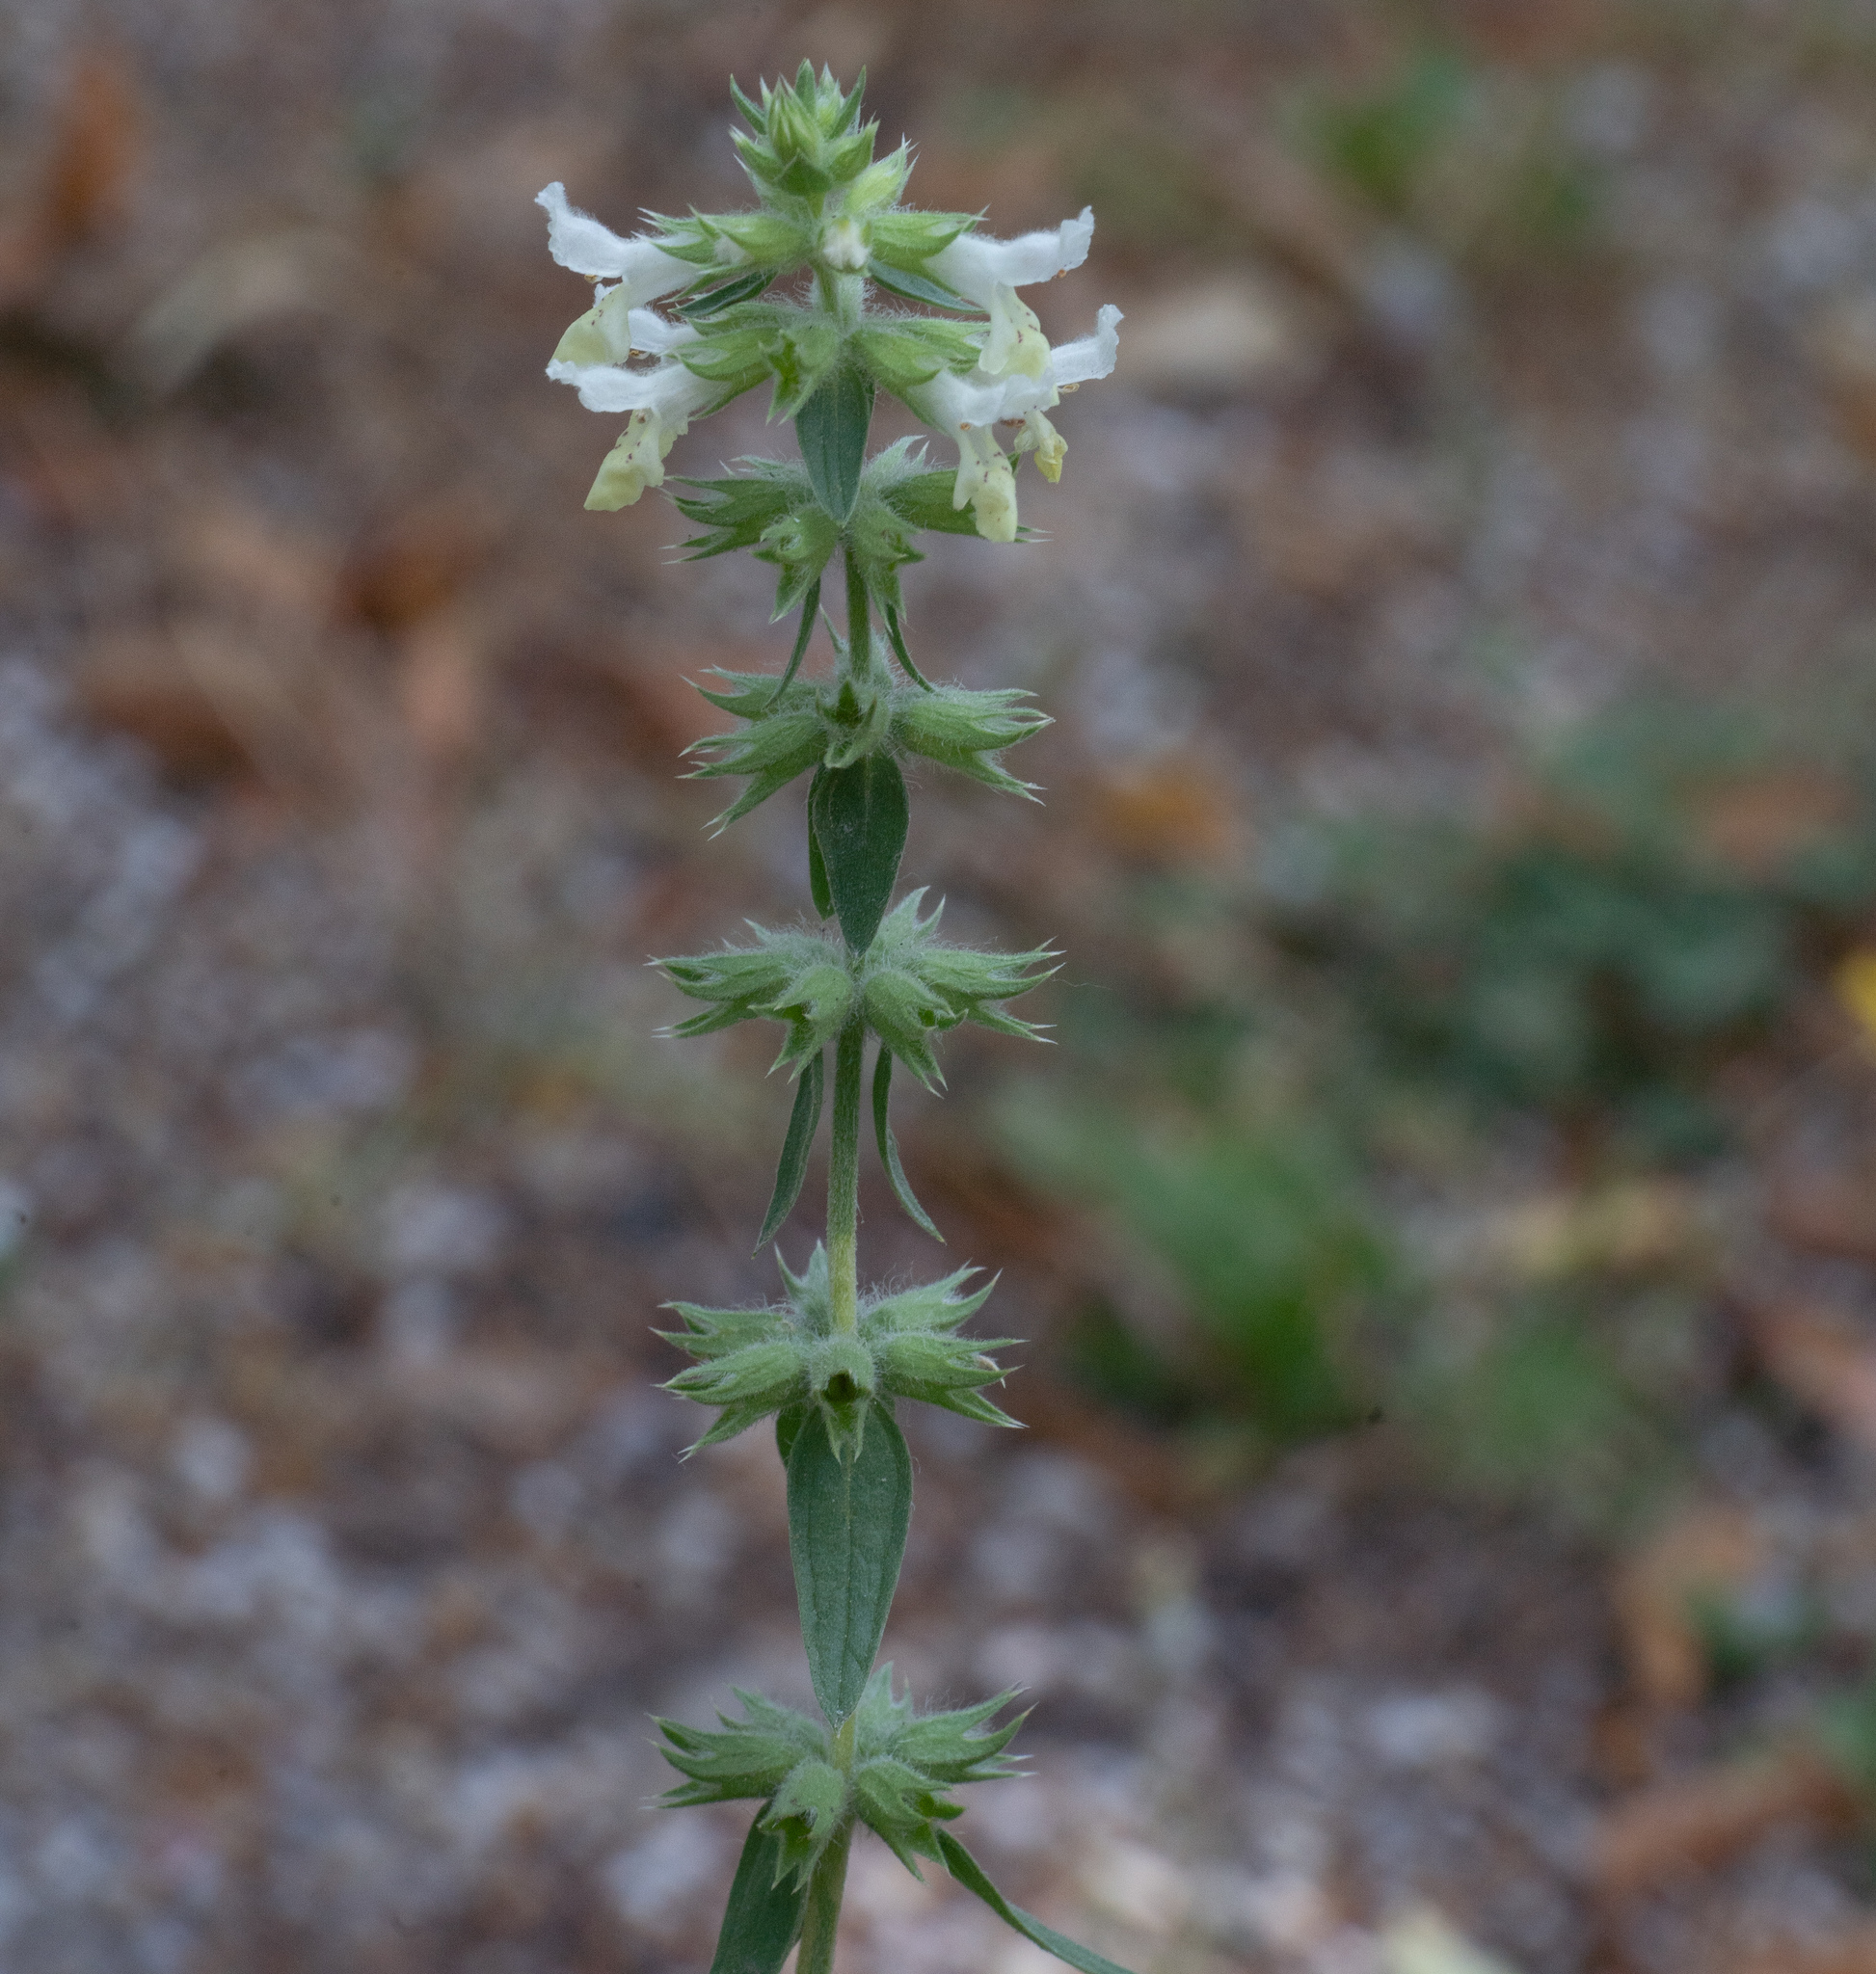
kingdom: Plantae
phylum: Tracheophyta
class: Magnoliopsida
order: Lamiales
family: Lamiaceae
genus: Stachys
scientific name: Stachys annua
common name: Annual yellow-woundwort
